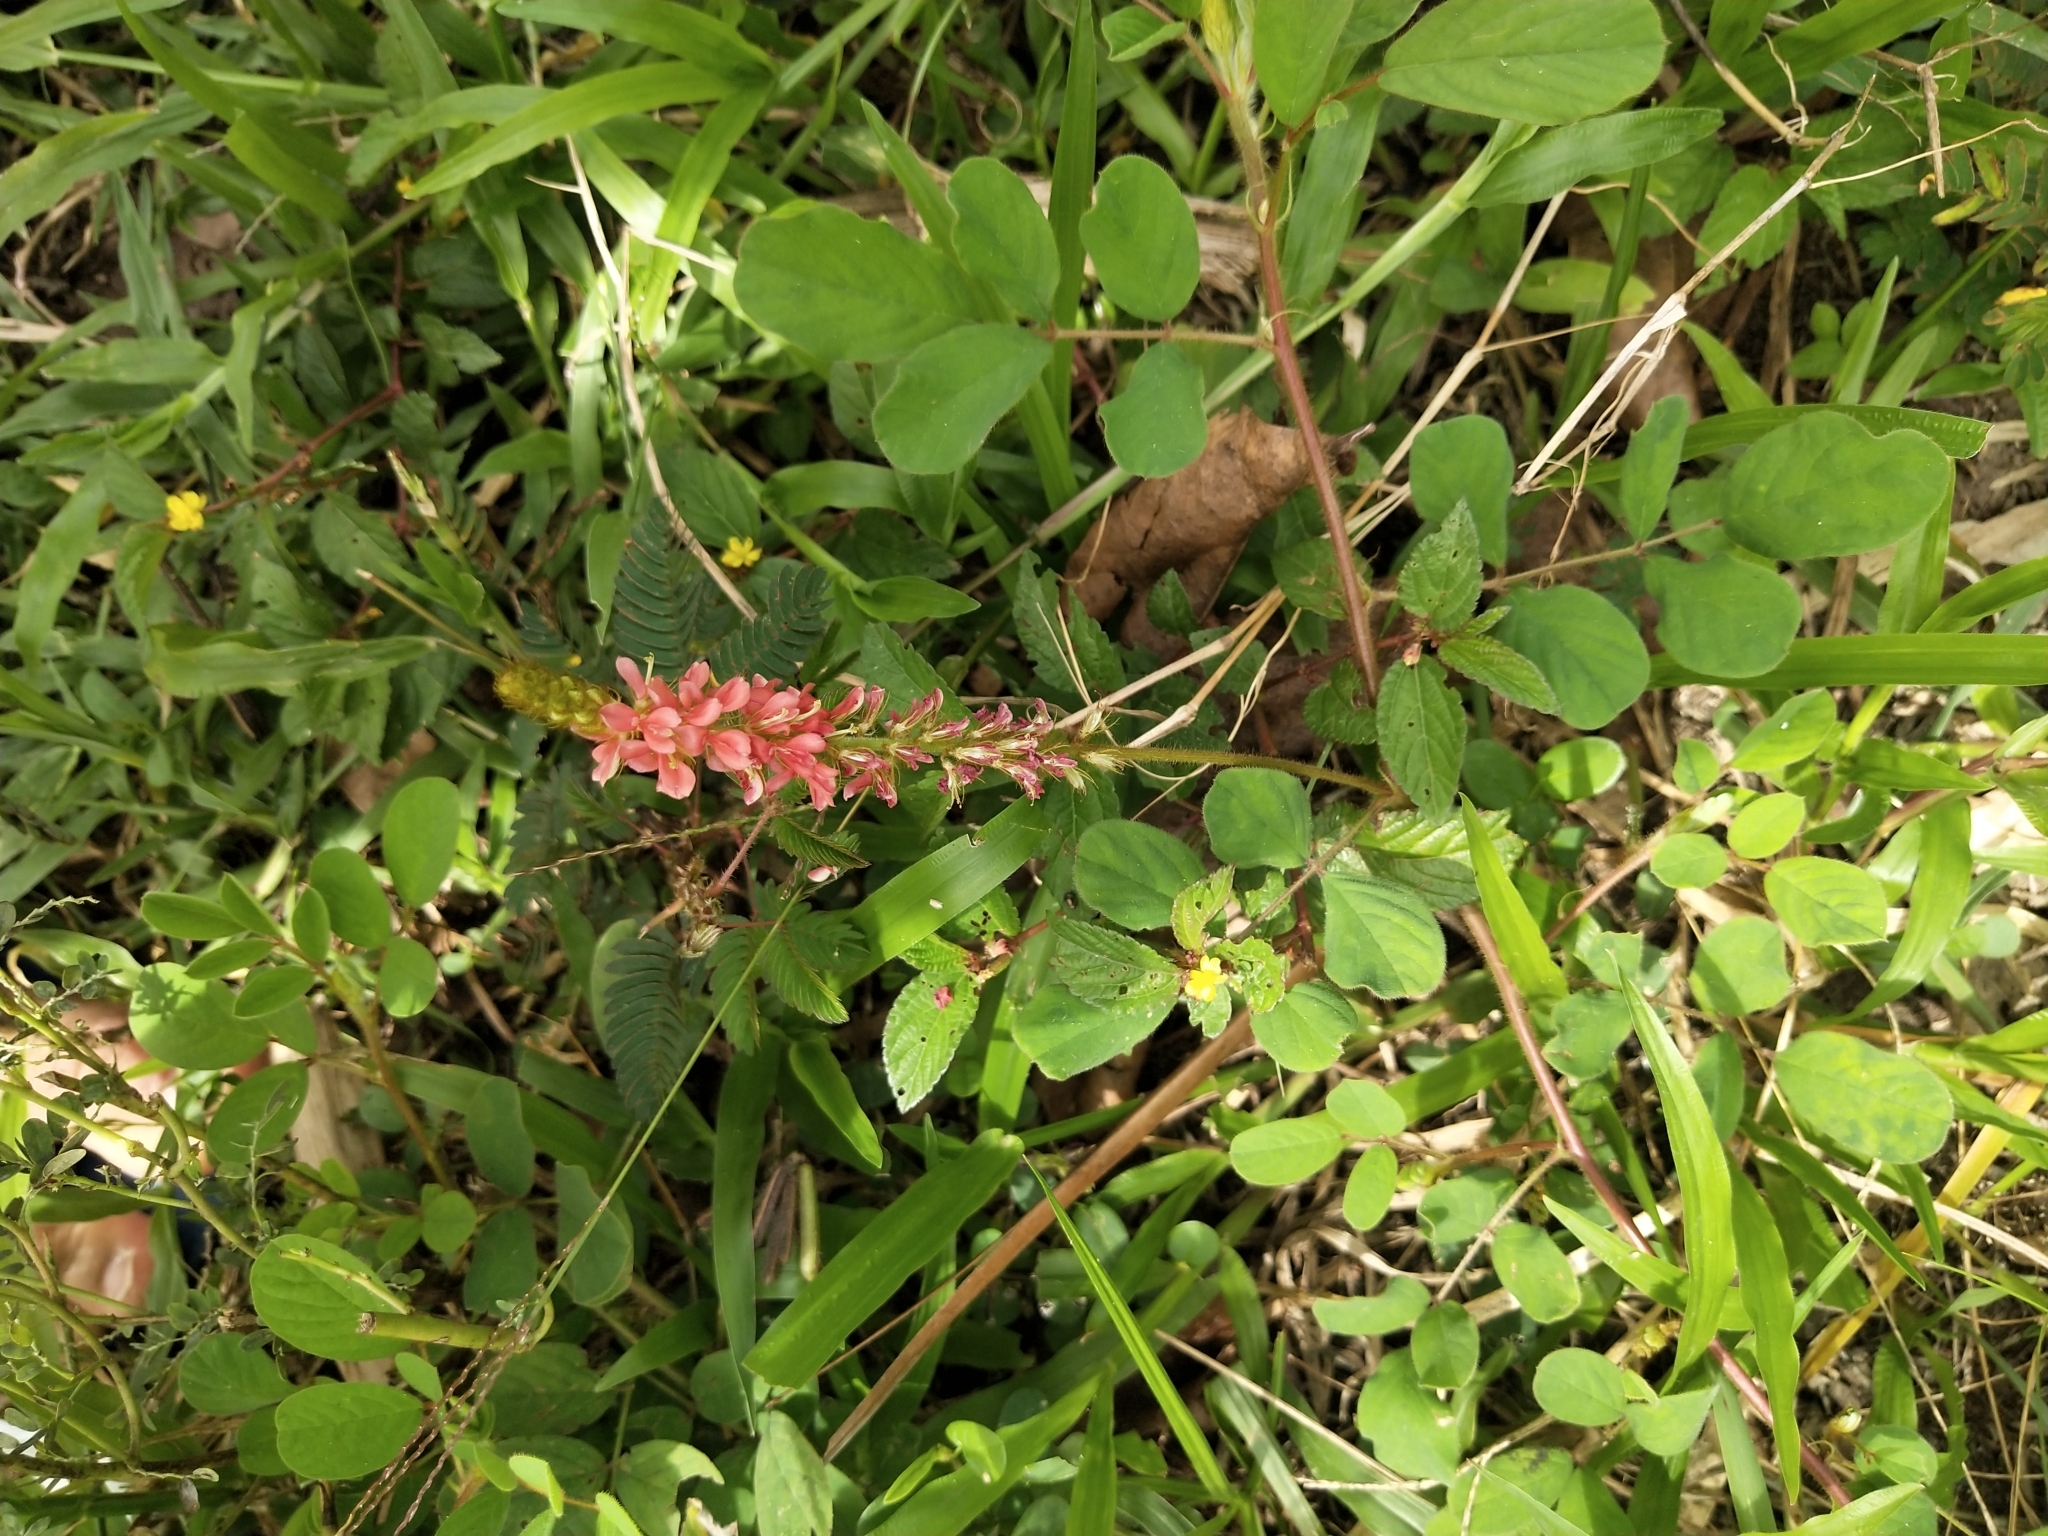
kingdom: Plantae
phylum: Tracheophyta
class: Magnoliopsida
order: Fabales
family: Fabaceae
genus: Indigofera
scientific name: Indigofera hirsuta
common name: Hairy indigo
